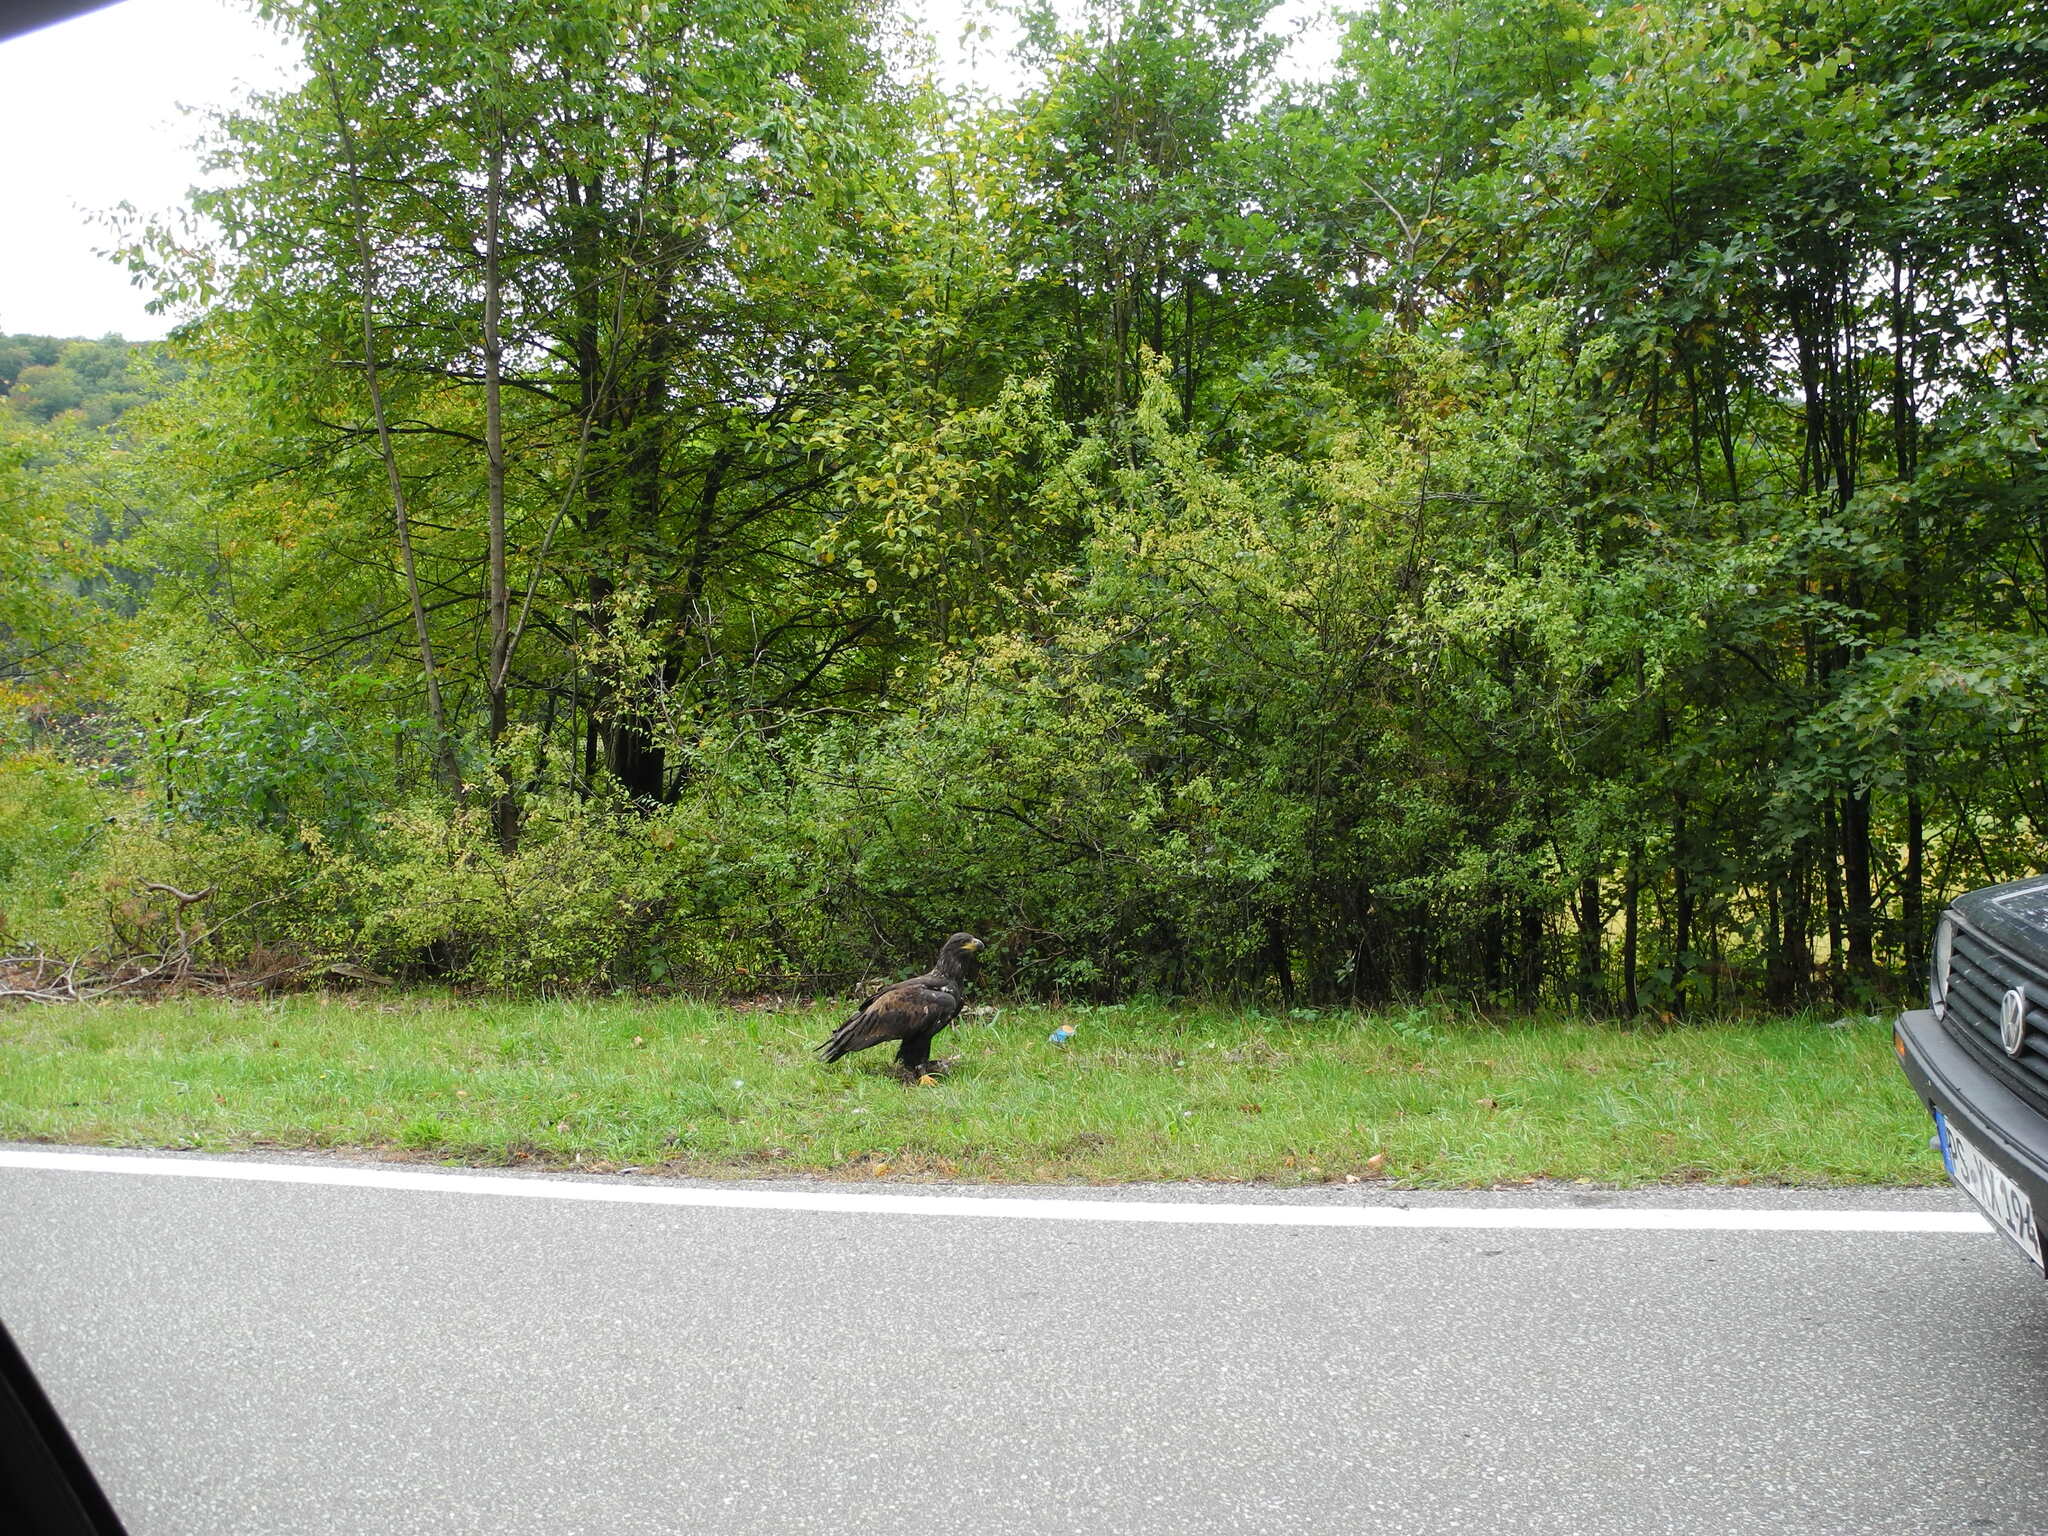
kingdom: Animalia
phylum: Chordata
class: Aves
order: Accipitriformes
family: Accipitridae
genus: Haliaeetus
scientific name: Haliaeetus albicilla
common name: White-tailed eagle
